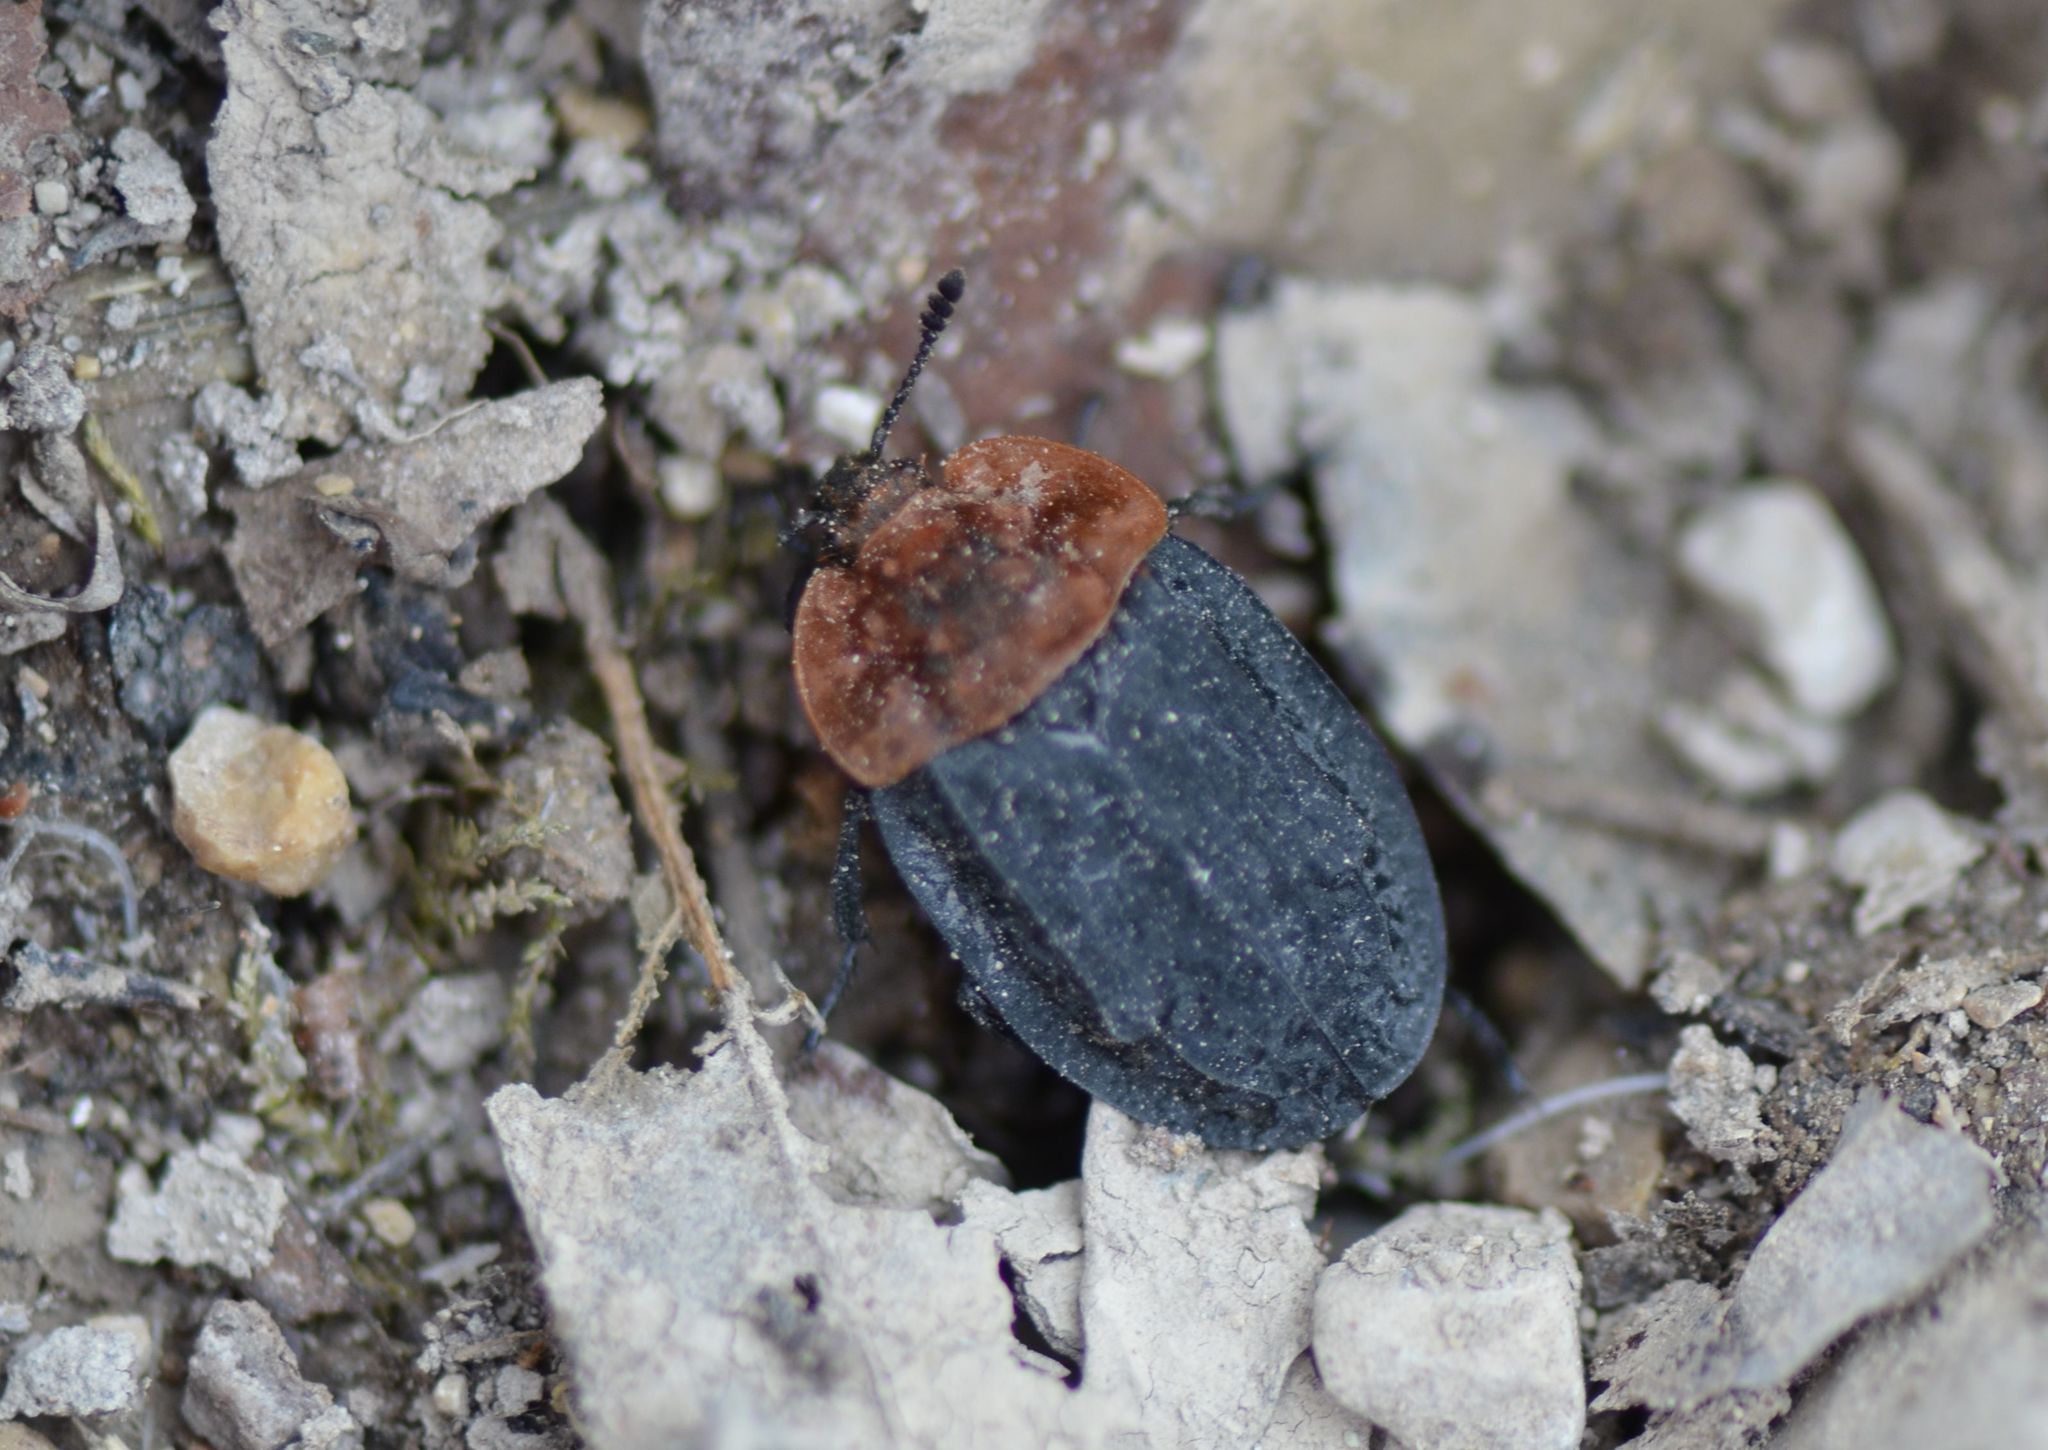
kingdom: Animalia
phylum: Arthropoda
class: Insecta
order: Coleoptera
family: Staphylinidae
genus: Oiceoptoma
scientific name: Oiceoptoma thoracicum
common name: Red-breasted carrion beetle
